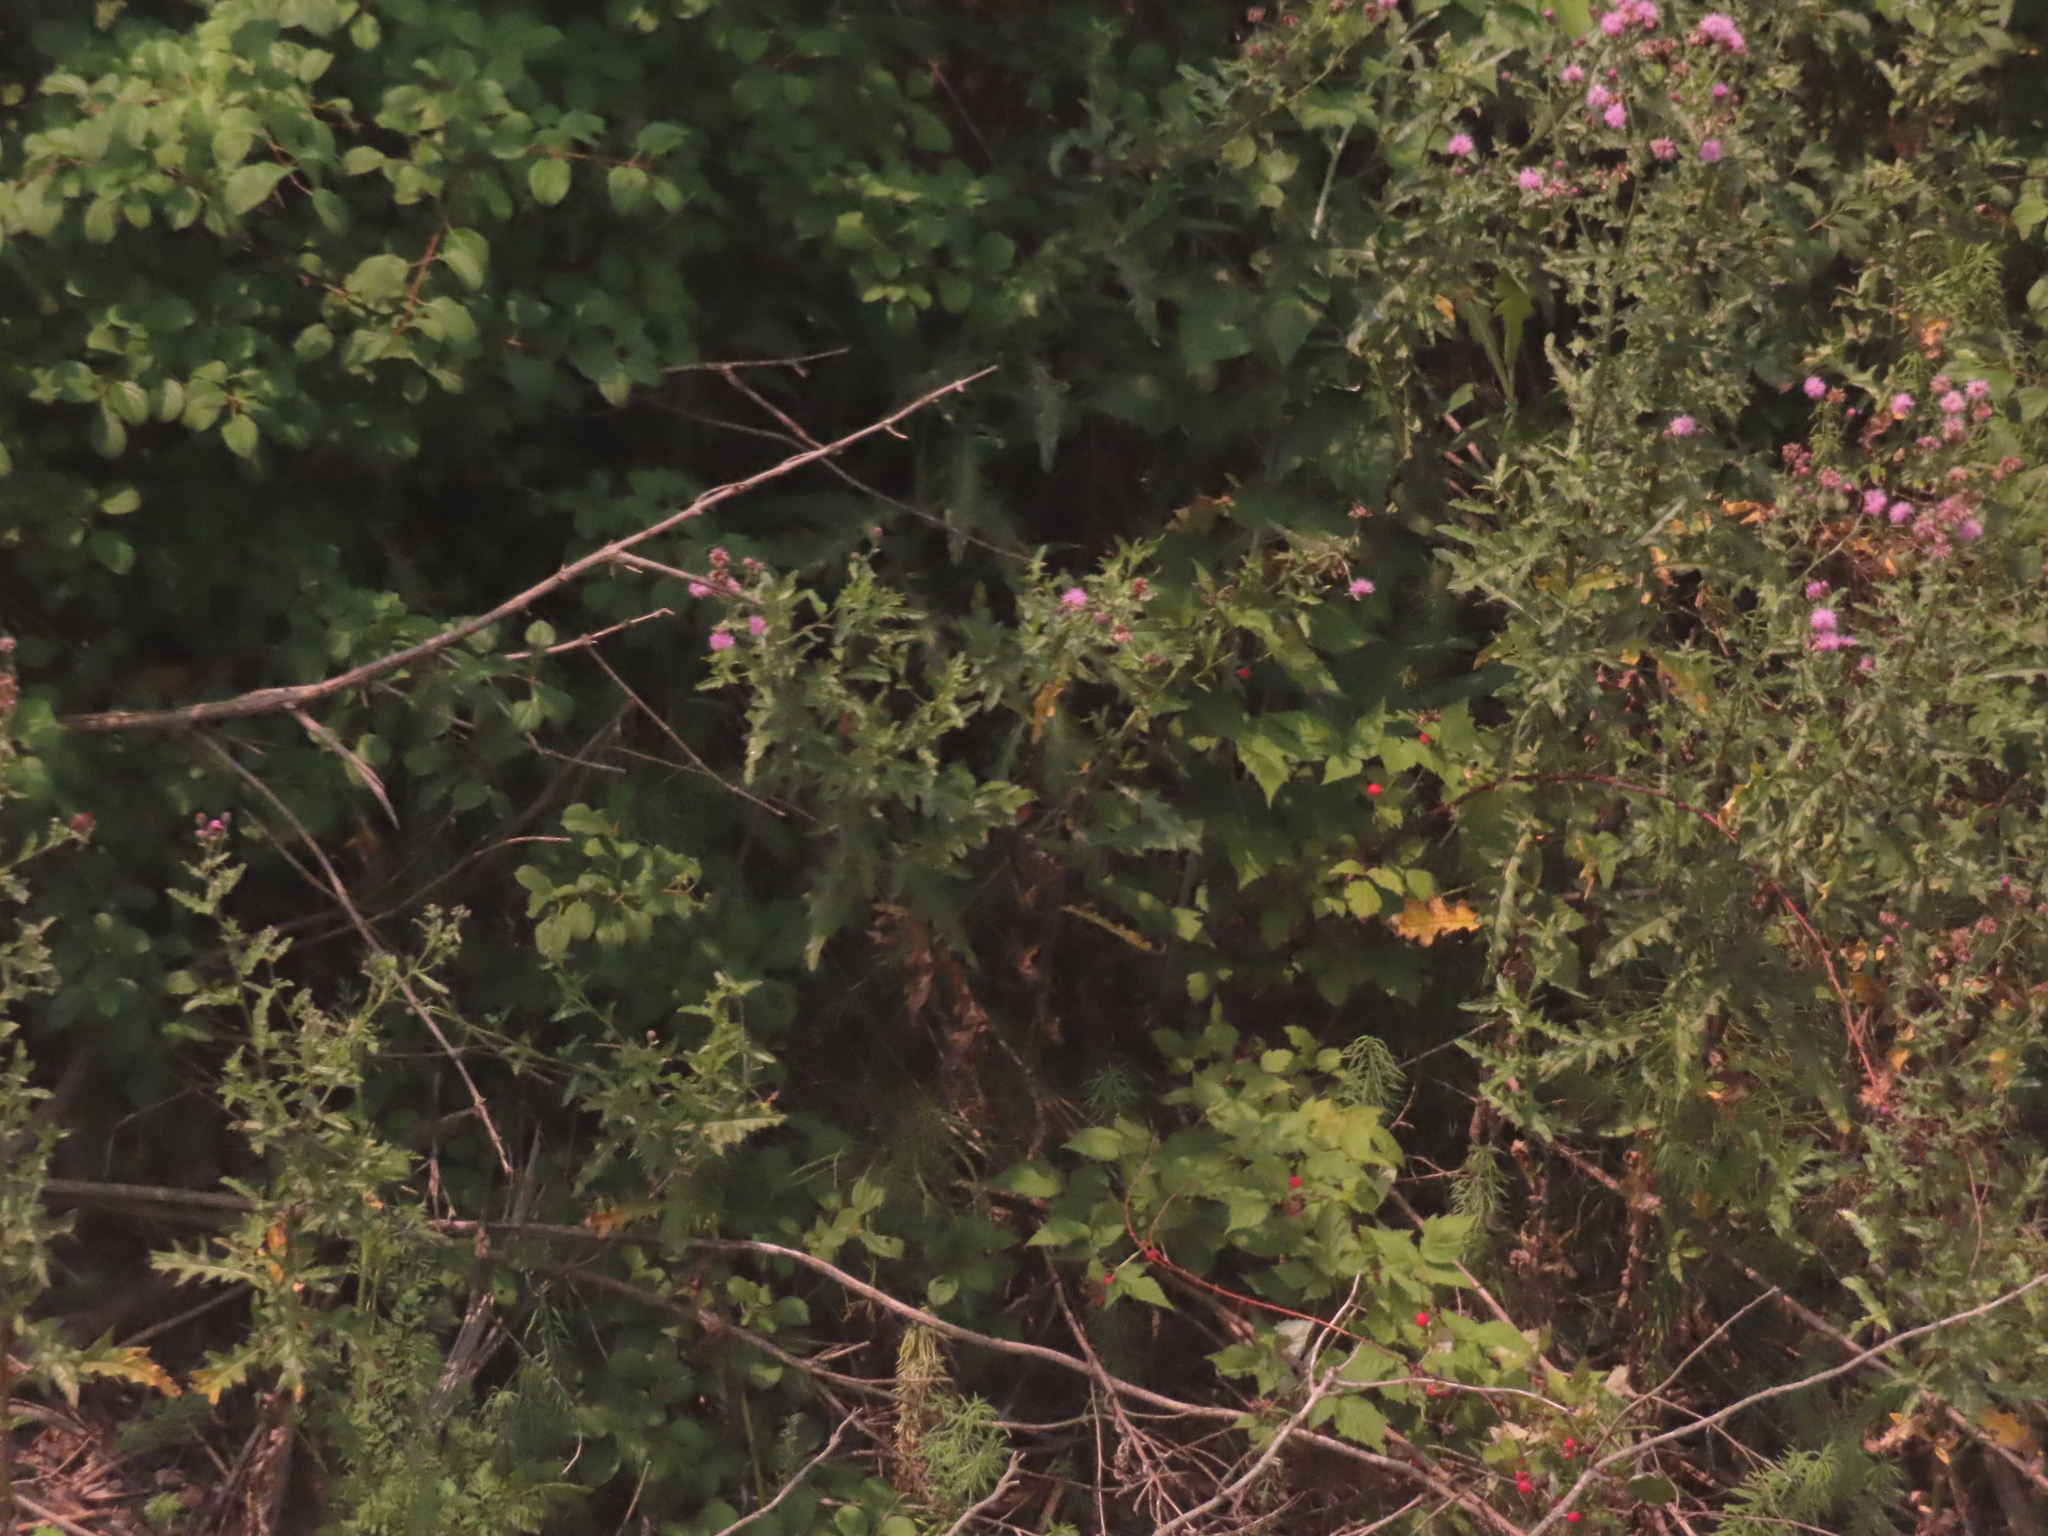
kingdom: Plantae
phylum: Tracheophyta
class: Magnoliopsida
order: Asterales
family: Asteraceae
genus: Cirsium
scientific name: Cirsium arvense
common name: Creeping thistle
